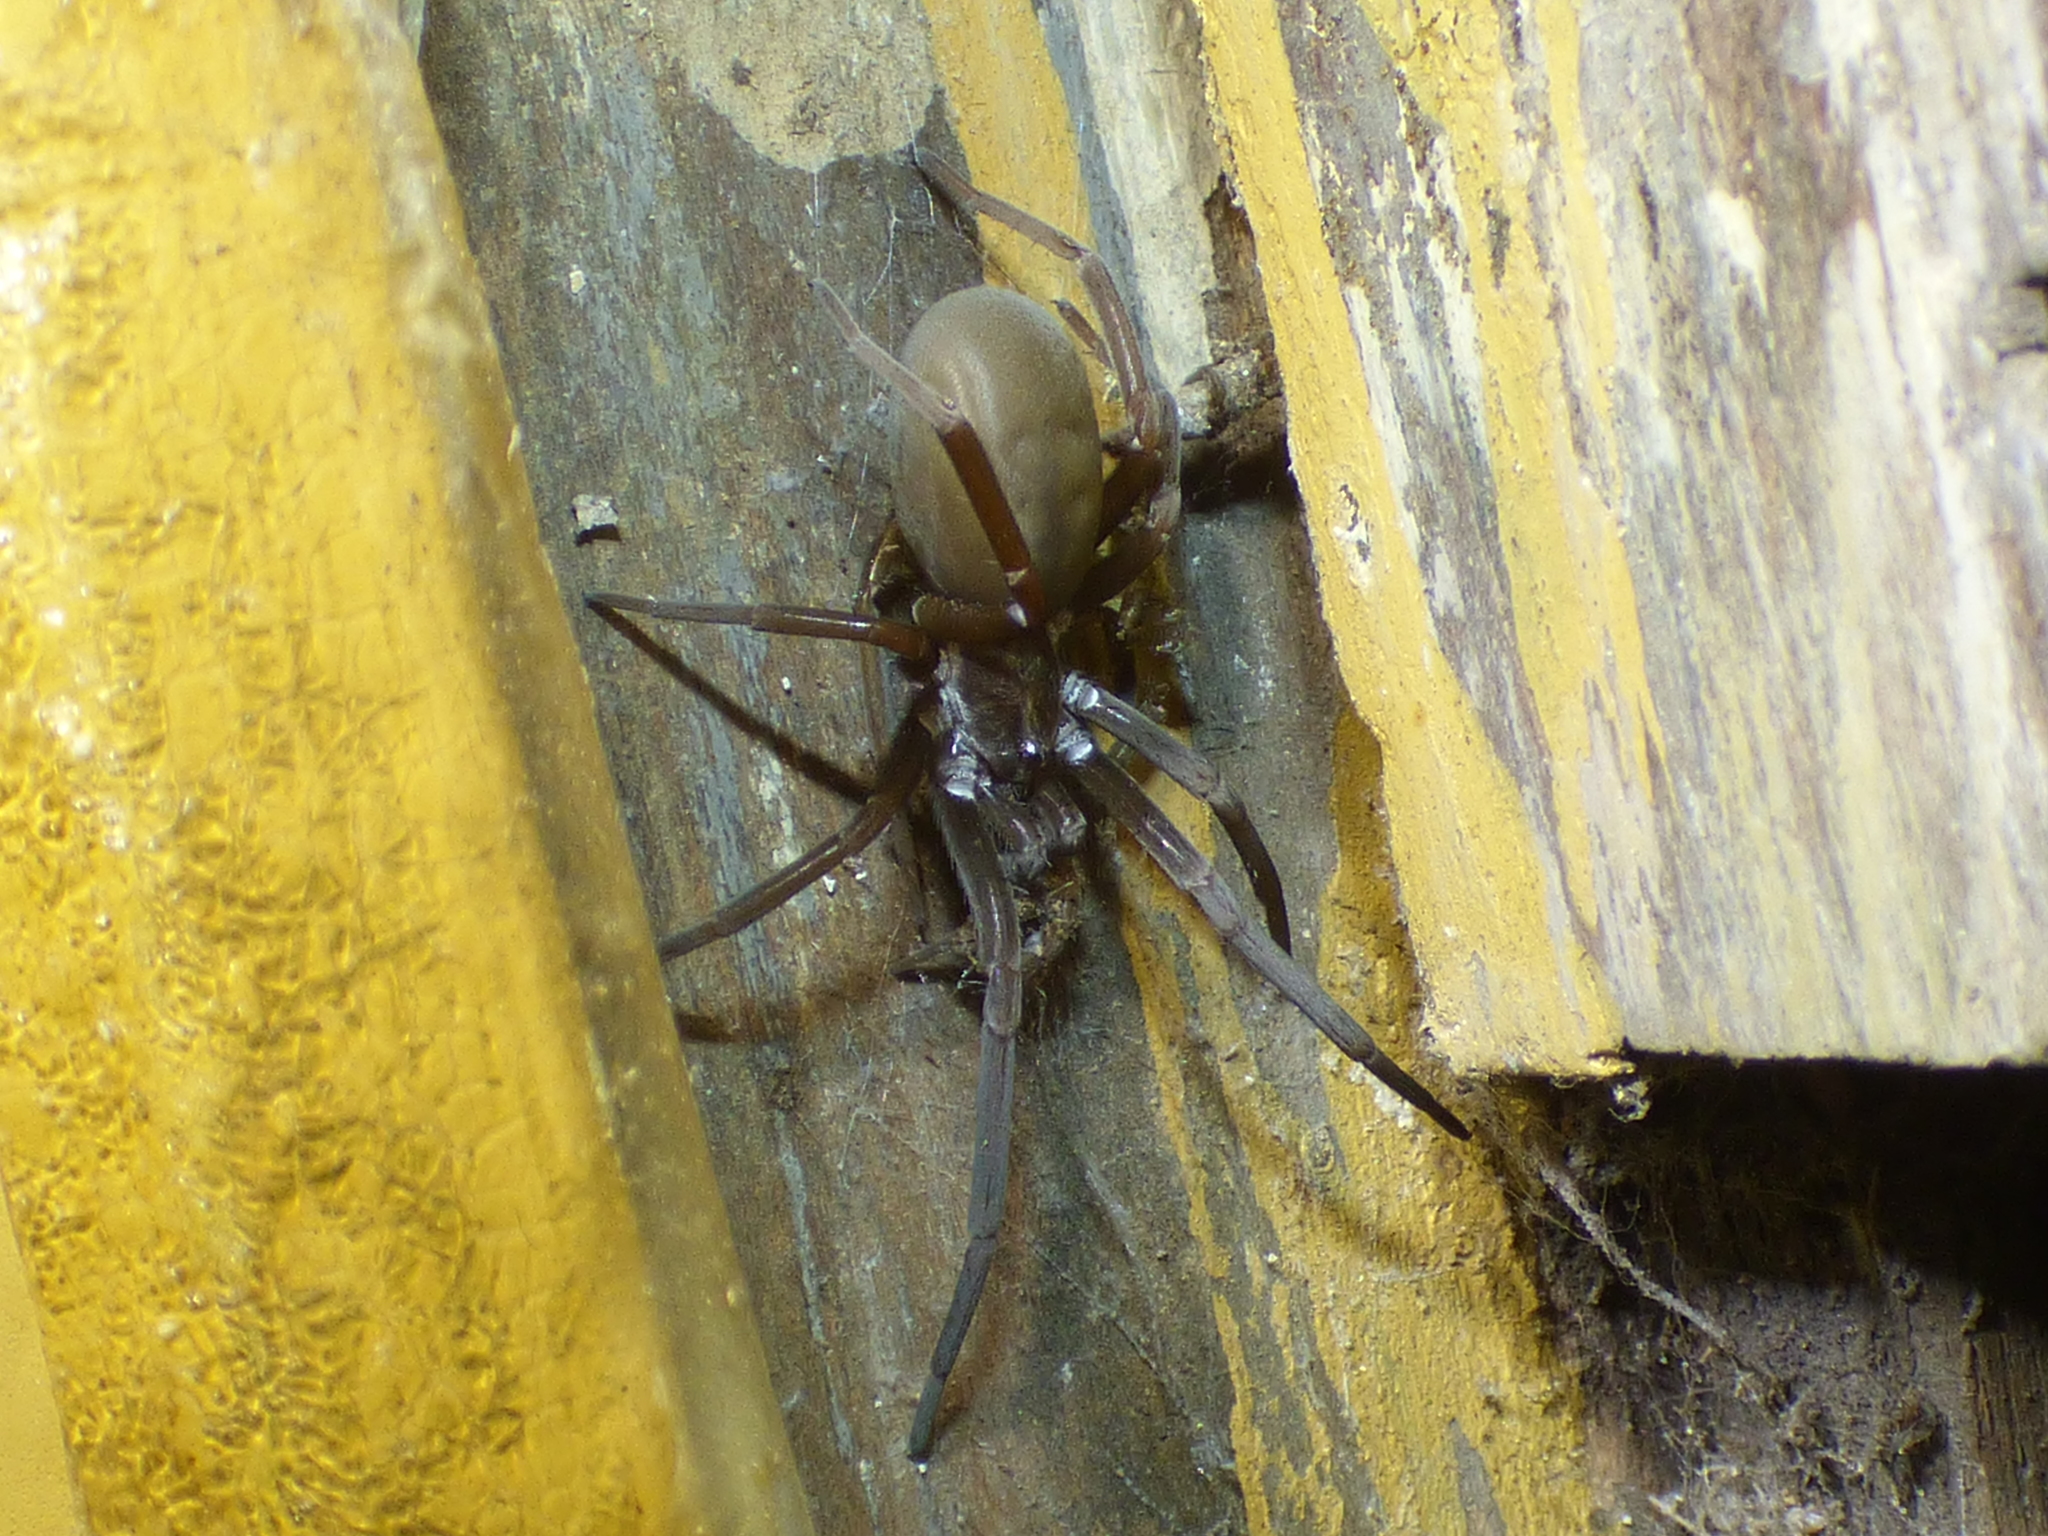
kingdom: Animalia
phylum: Arthropoda
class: Arachnida
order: Araneae
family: Filistatidae
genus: Kukulcania
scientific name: Kukulcania hibernalis
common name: Crevice weaver
